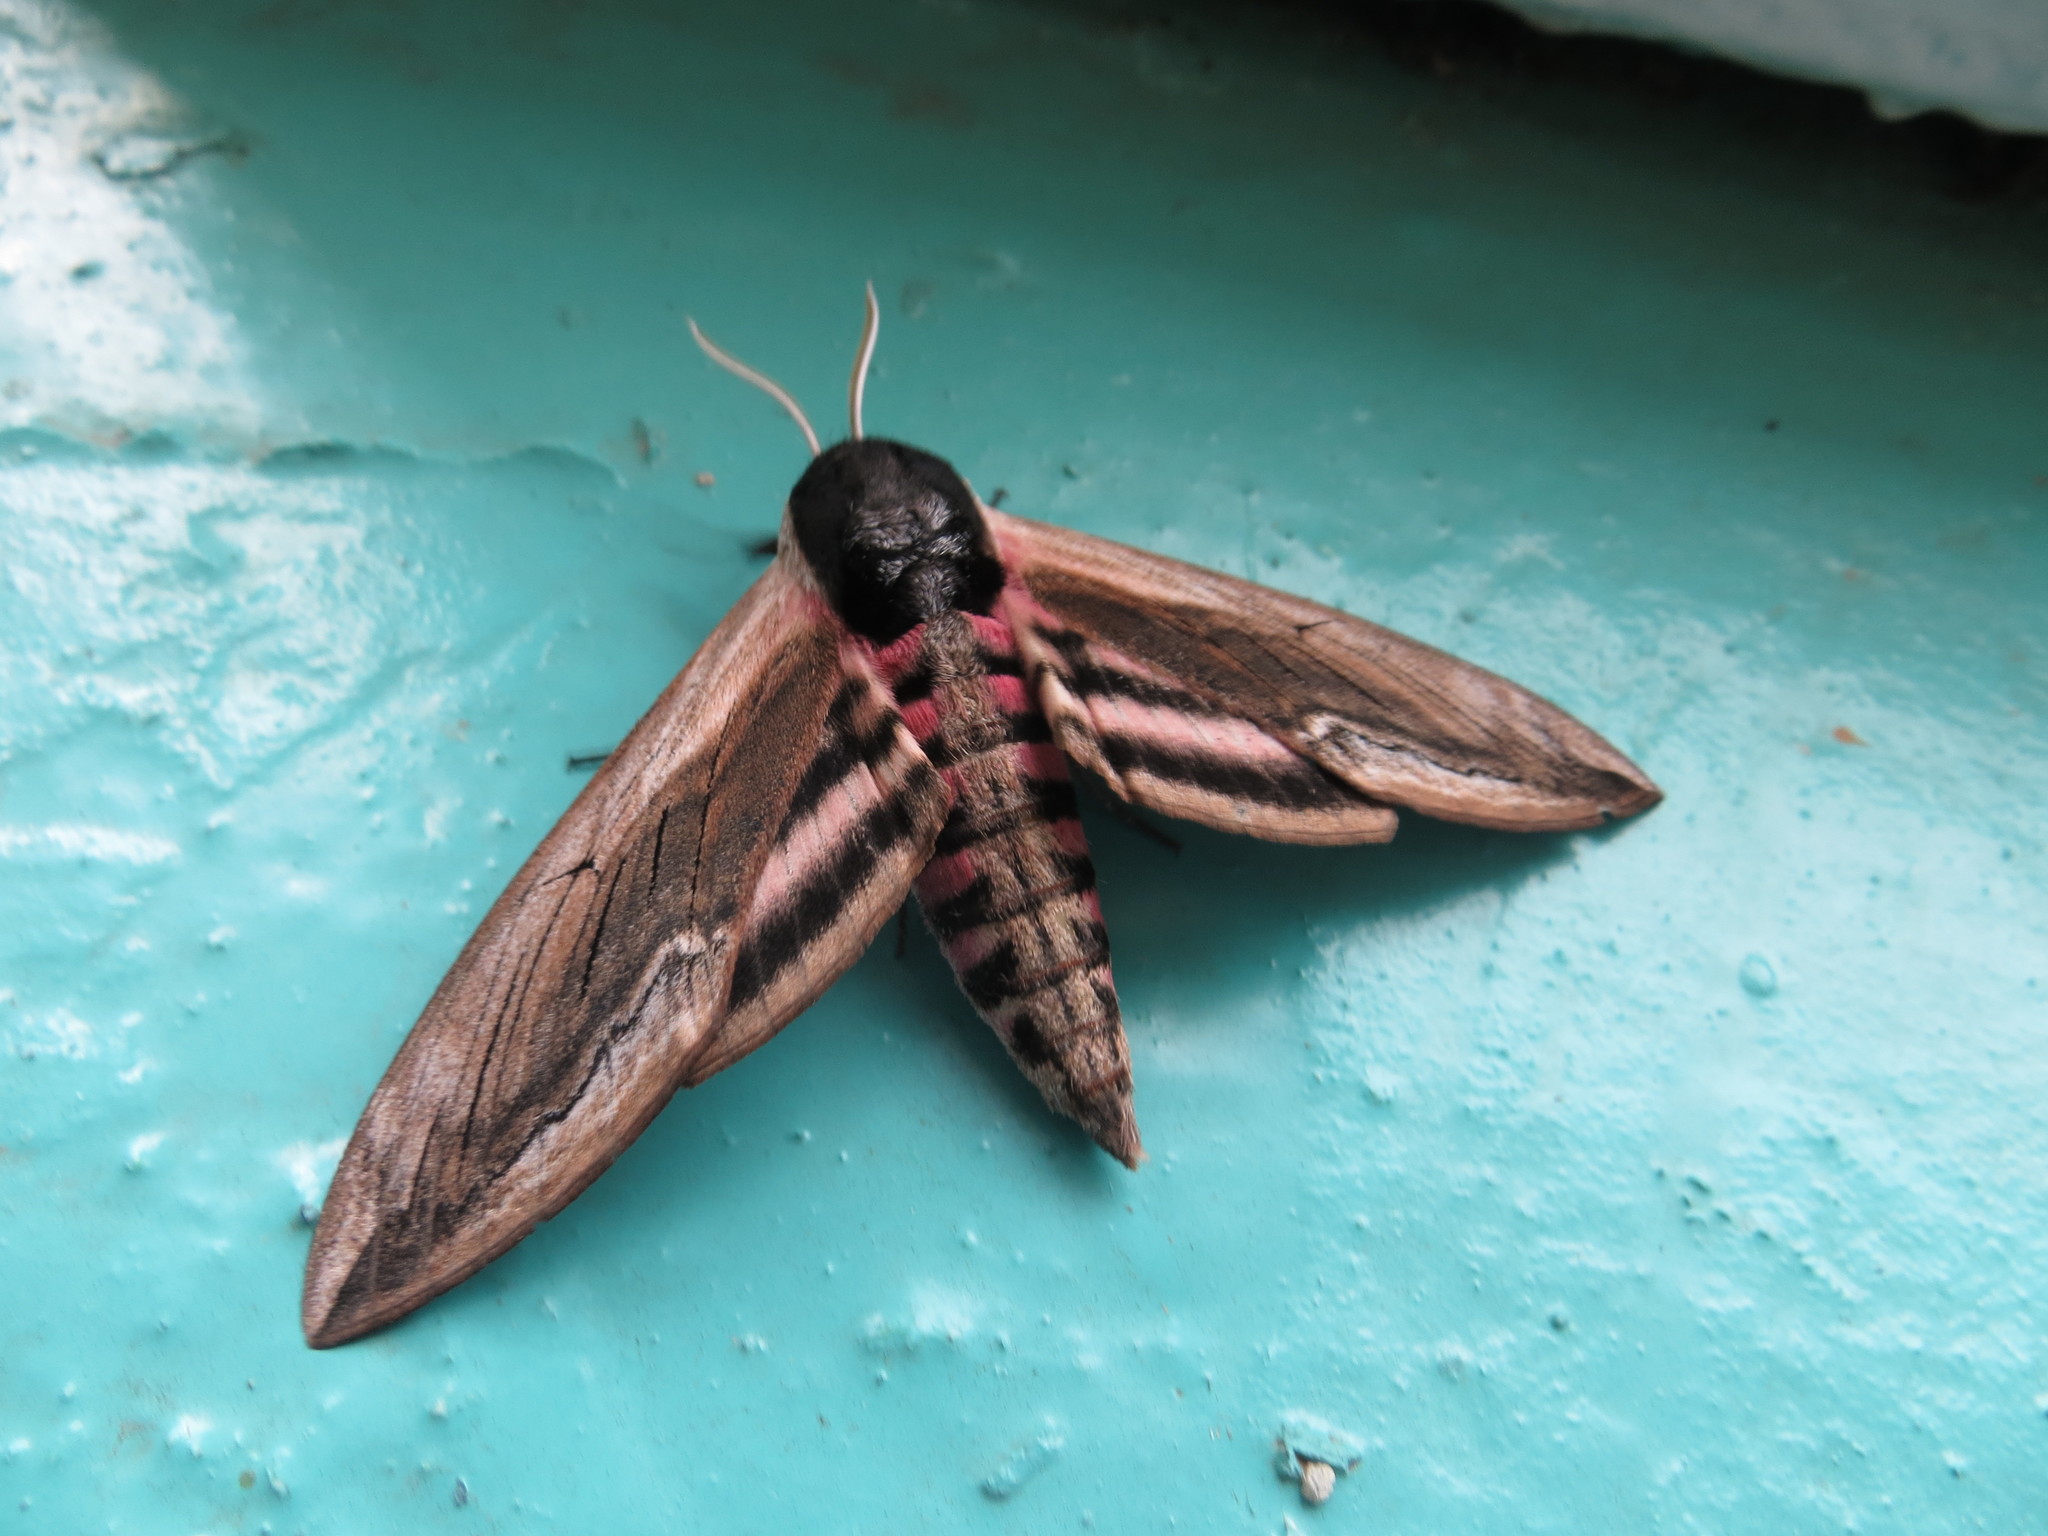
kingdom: Animalia
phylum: Arthropoda
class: Insecta
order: Lepidoptera
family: Sphingidae
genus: Sphinx
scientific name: Sphinx ligustri
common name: Privet hawk-moth
